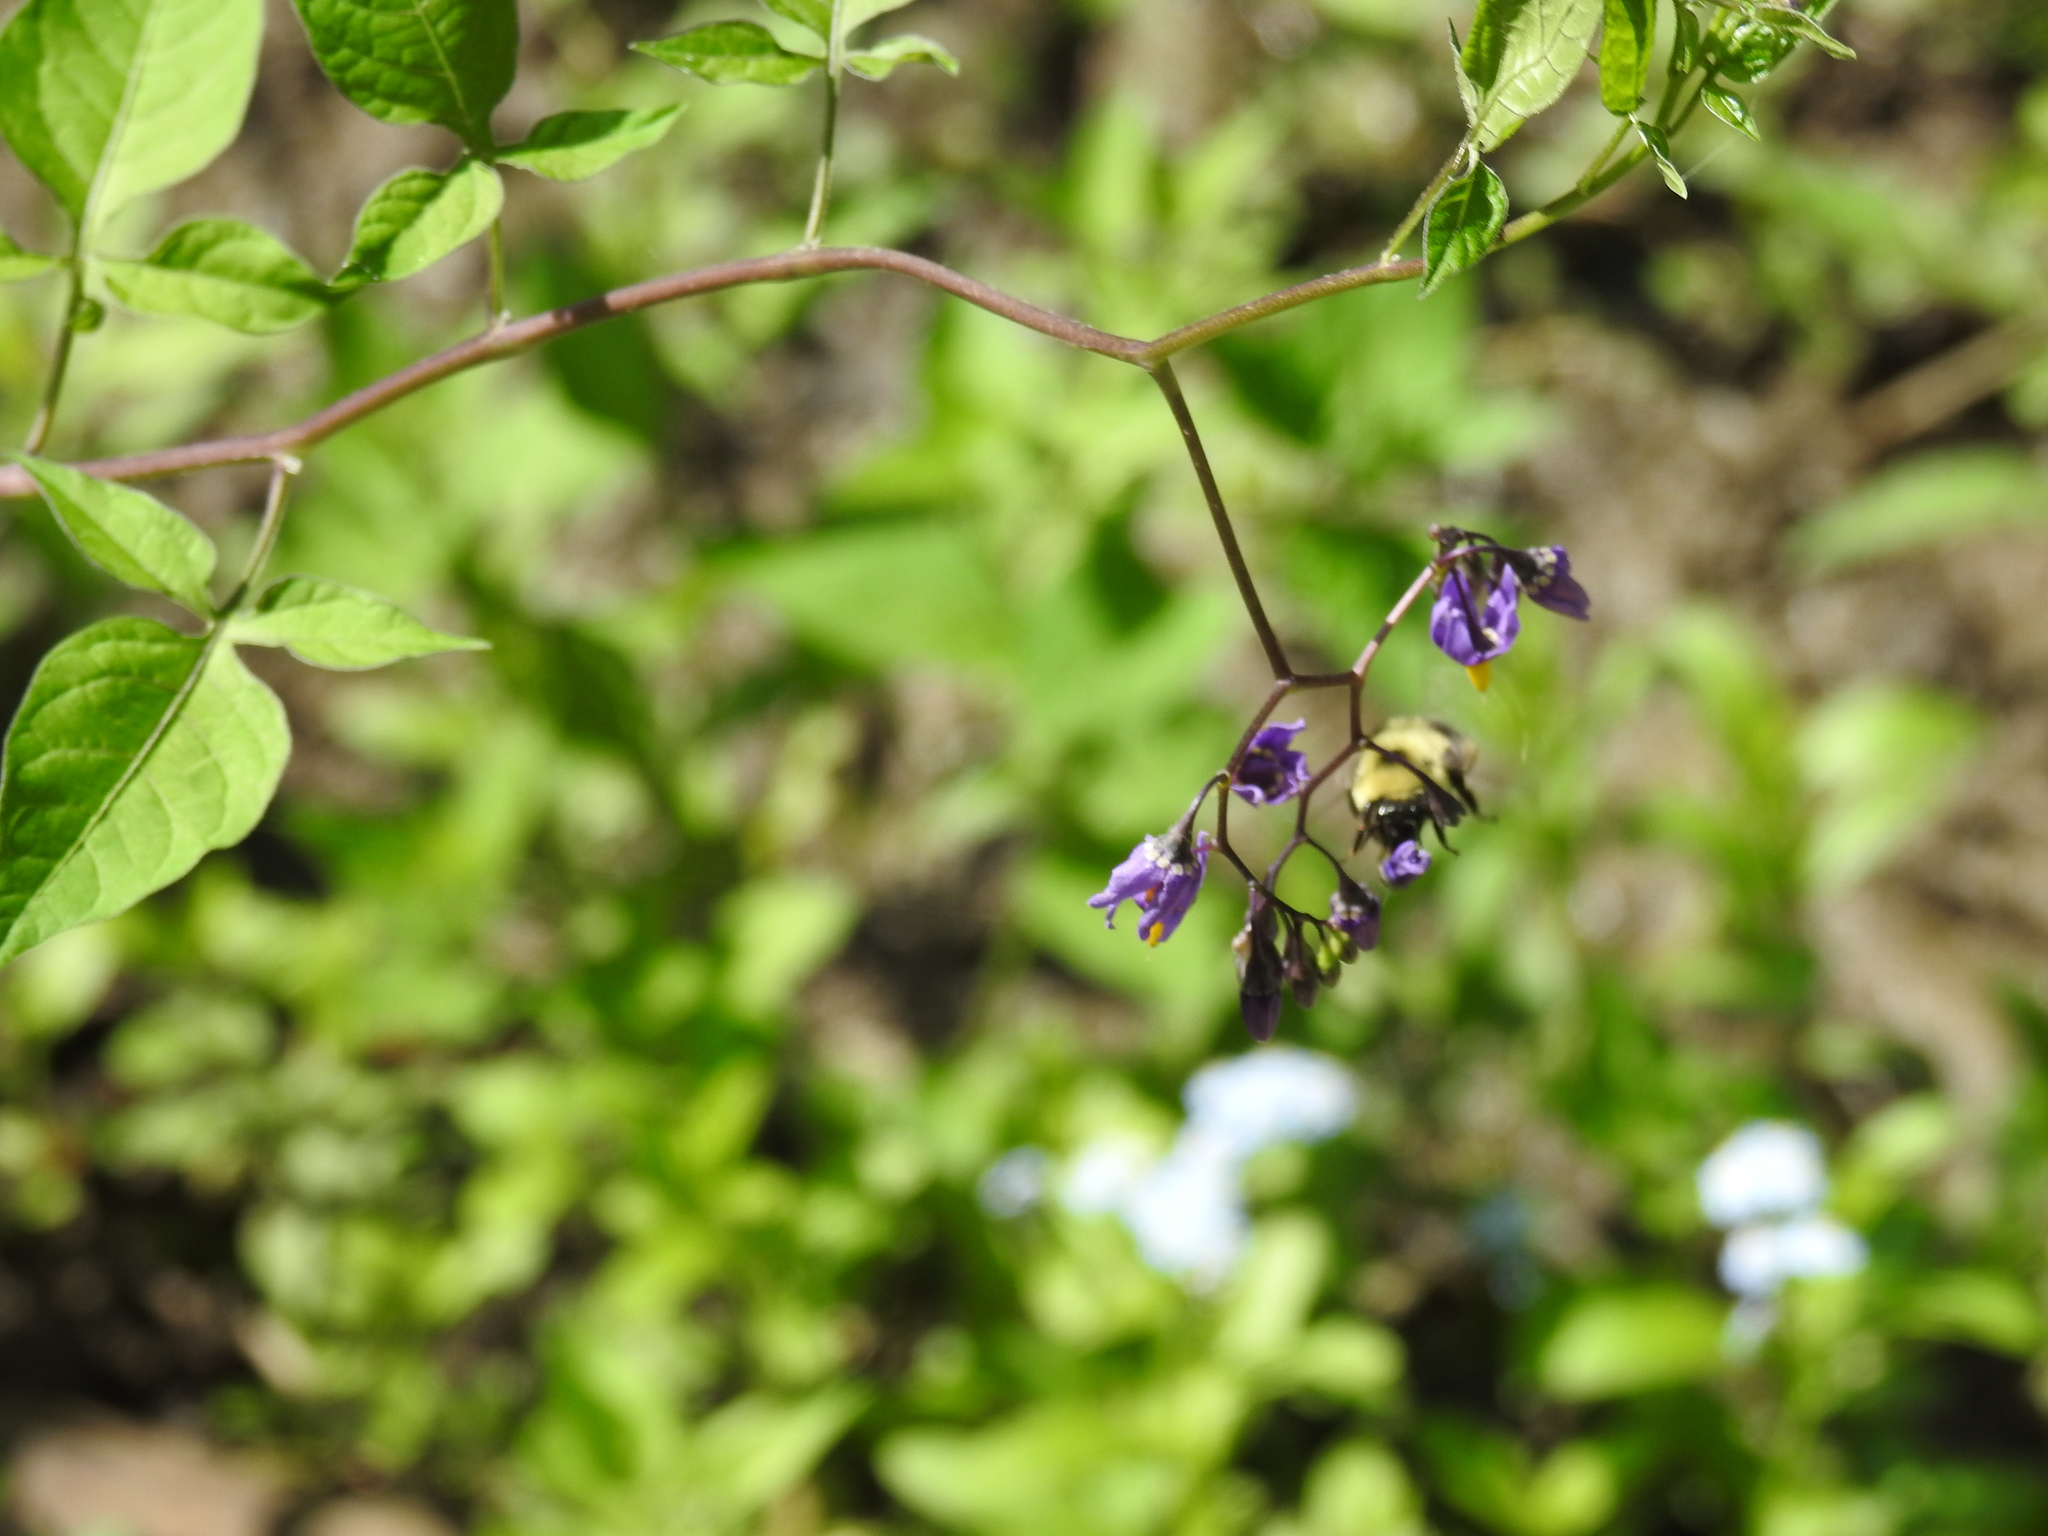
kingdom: Animalia
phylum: Arthropoda
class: Insecta
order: Hymenoptera
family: Apidae
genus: Bombus
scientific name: Bombus bimaculatus
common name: Two-spotted bumble bee
